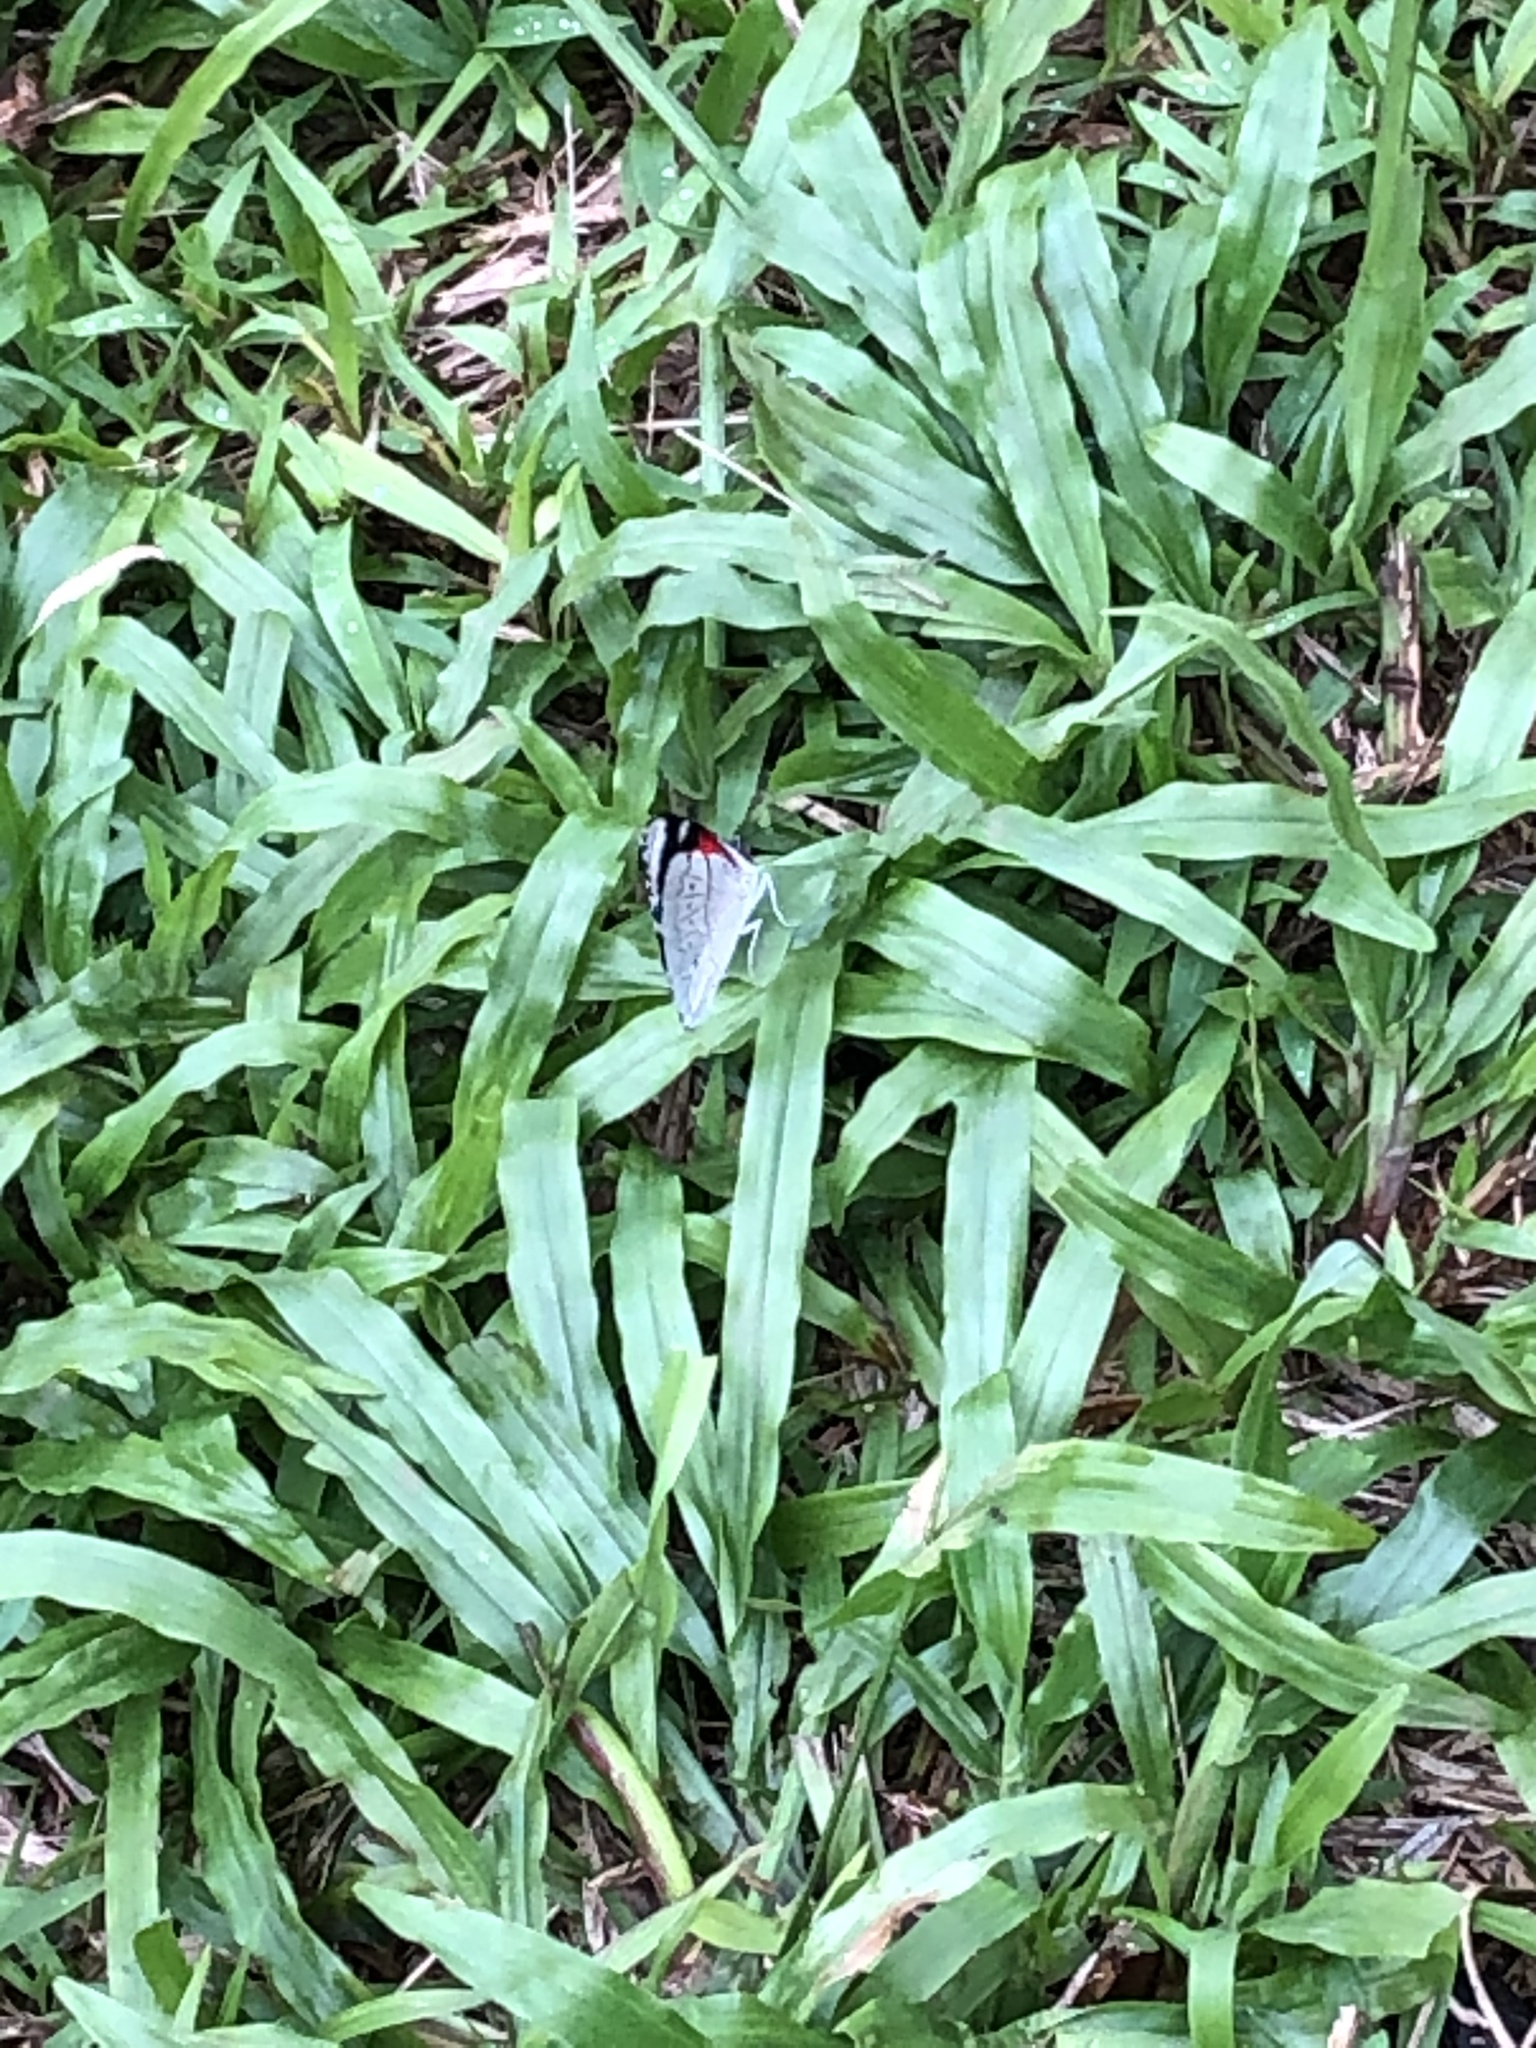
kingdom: Animalia
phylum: Arthropoda
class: Insecta
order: Lepidoptera
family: Nymphalidae
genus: Perisama
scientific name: Perisama cabirnia
